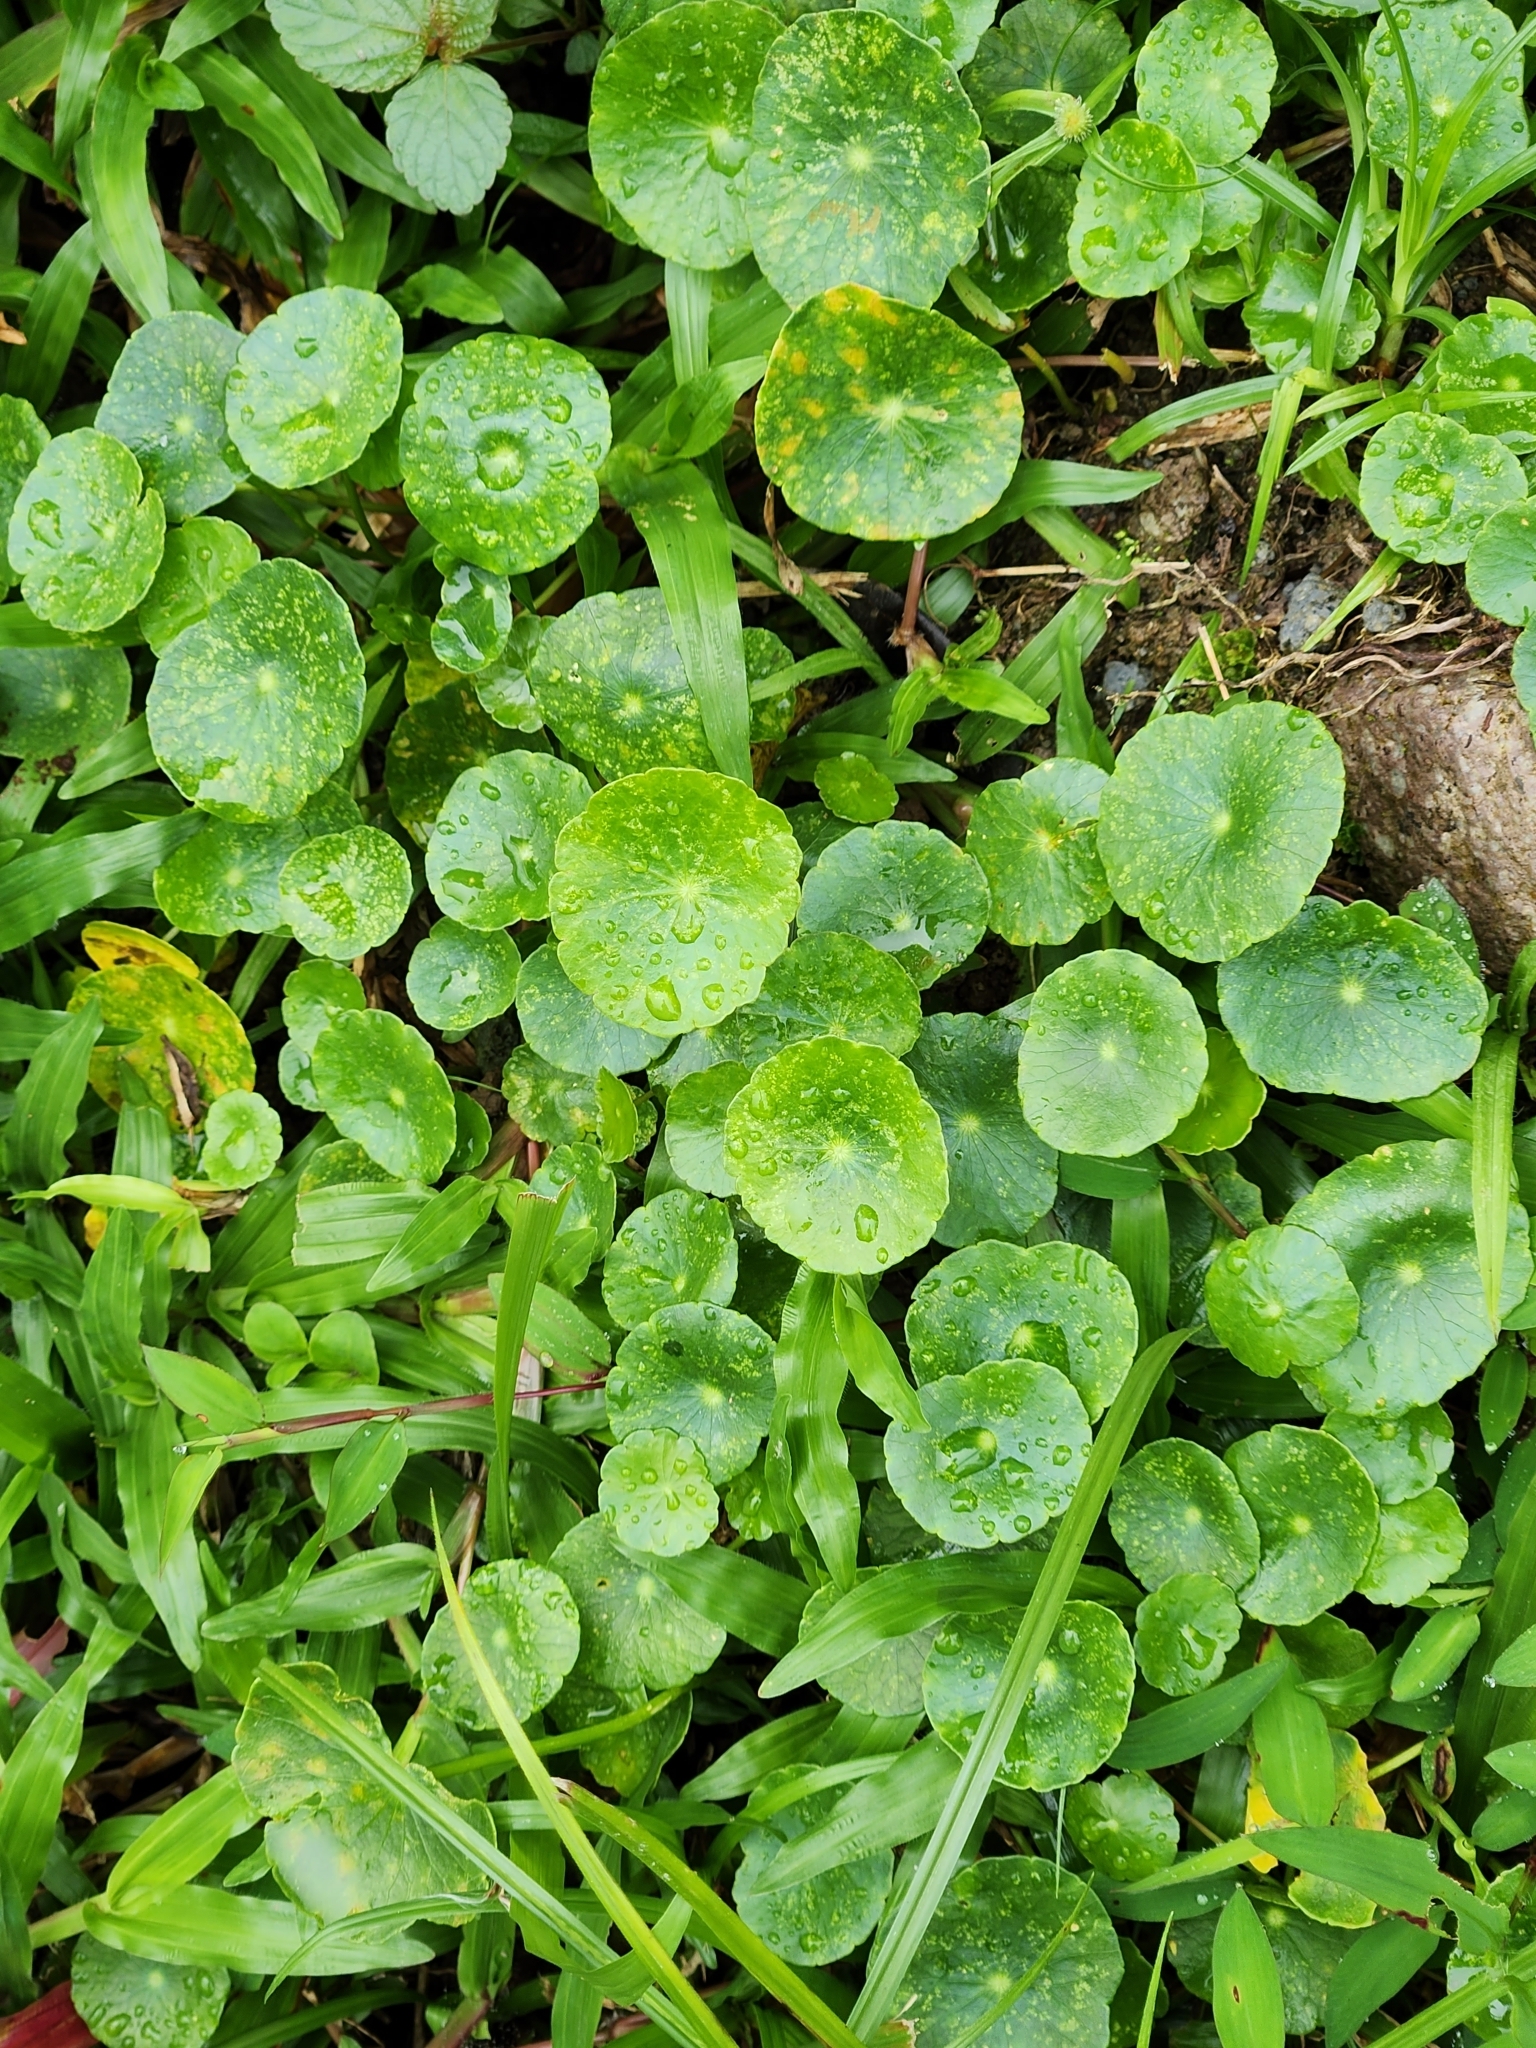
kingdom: Plantae
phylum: Tracheophyta
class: Magnoliopsida
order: Apiales
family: Araliaceae
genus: Hydrocotyle
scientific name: Hydrocotyle verticillata
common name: Whorled marshpennywort
